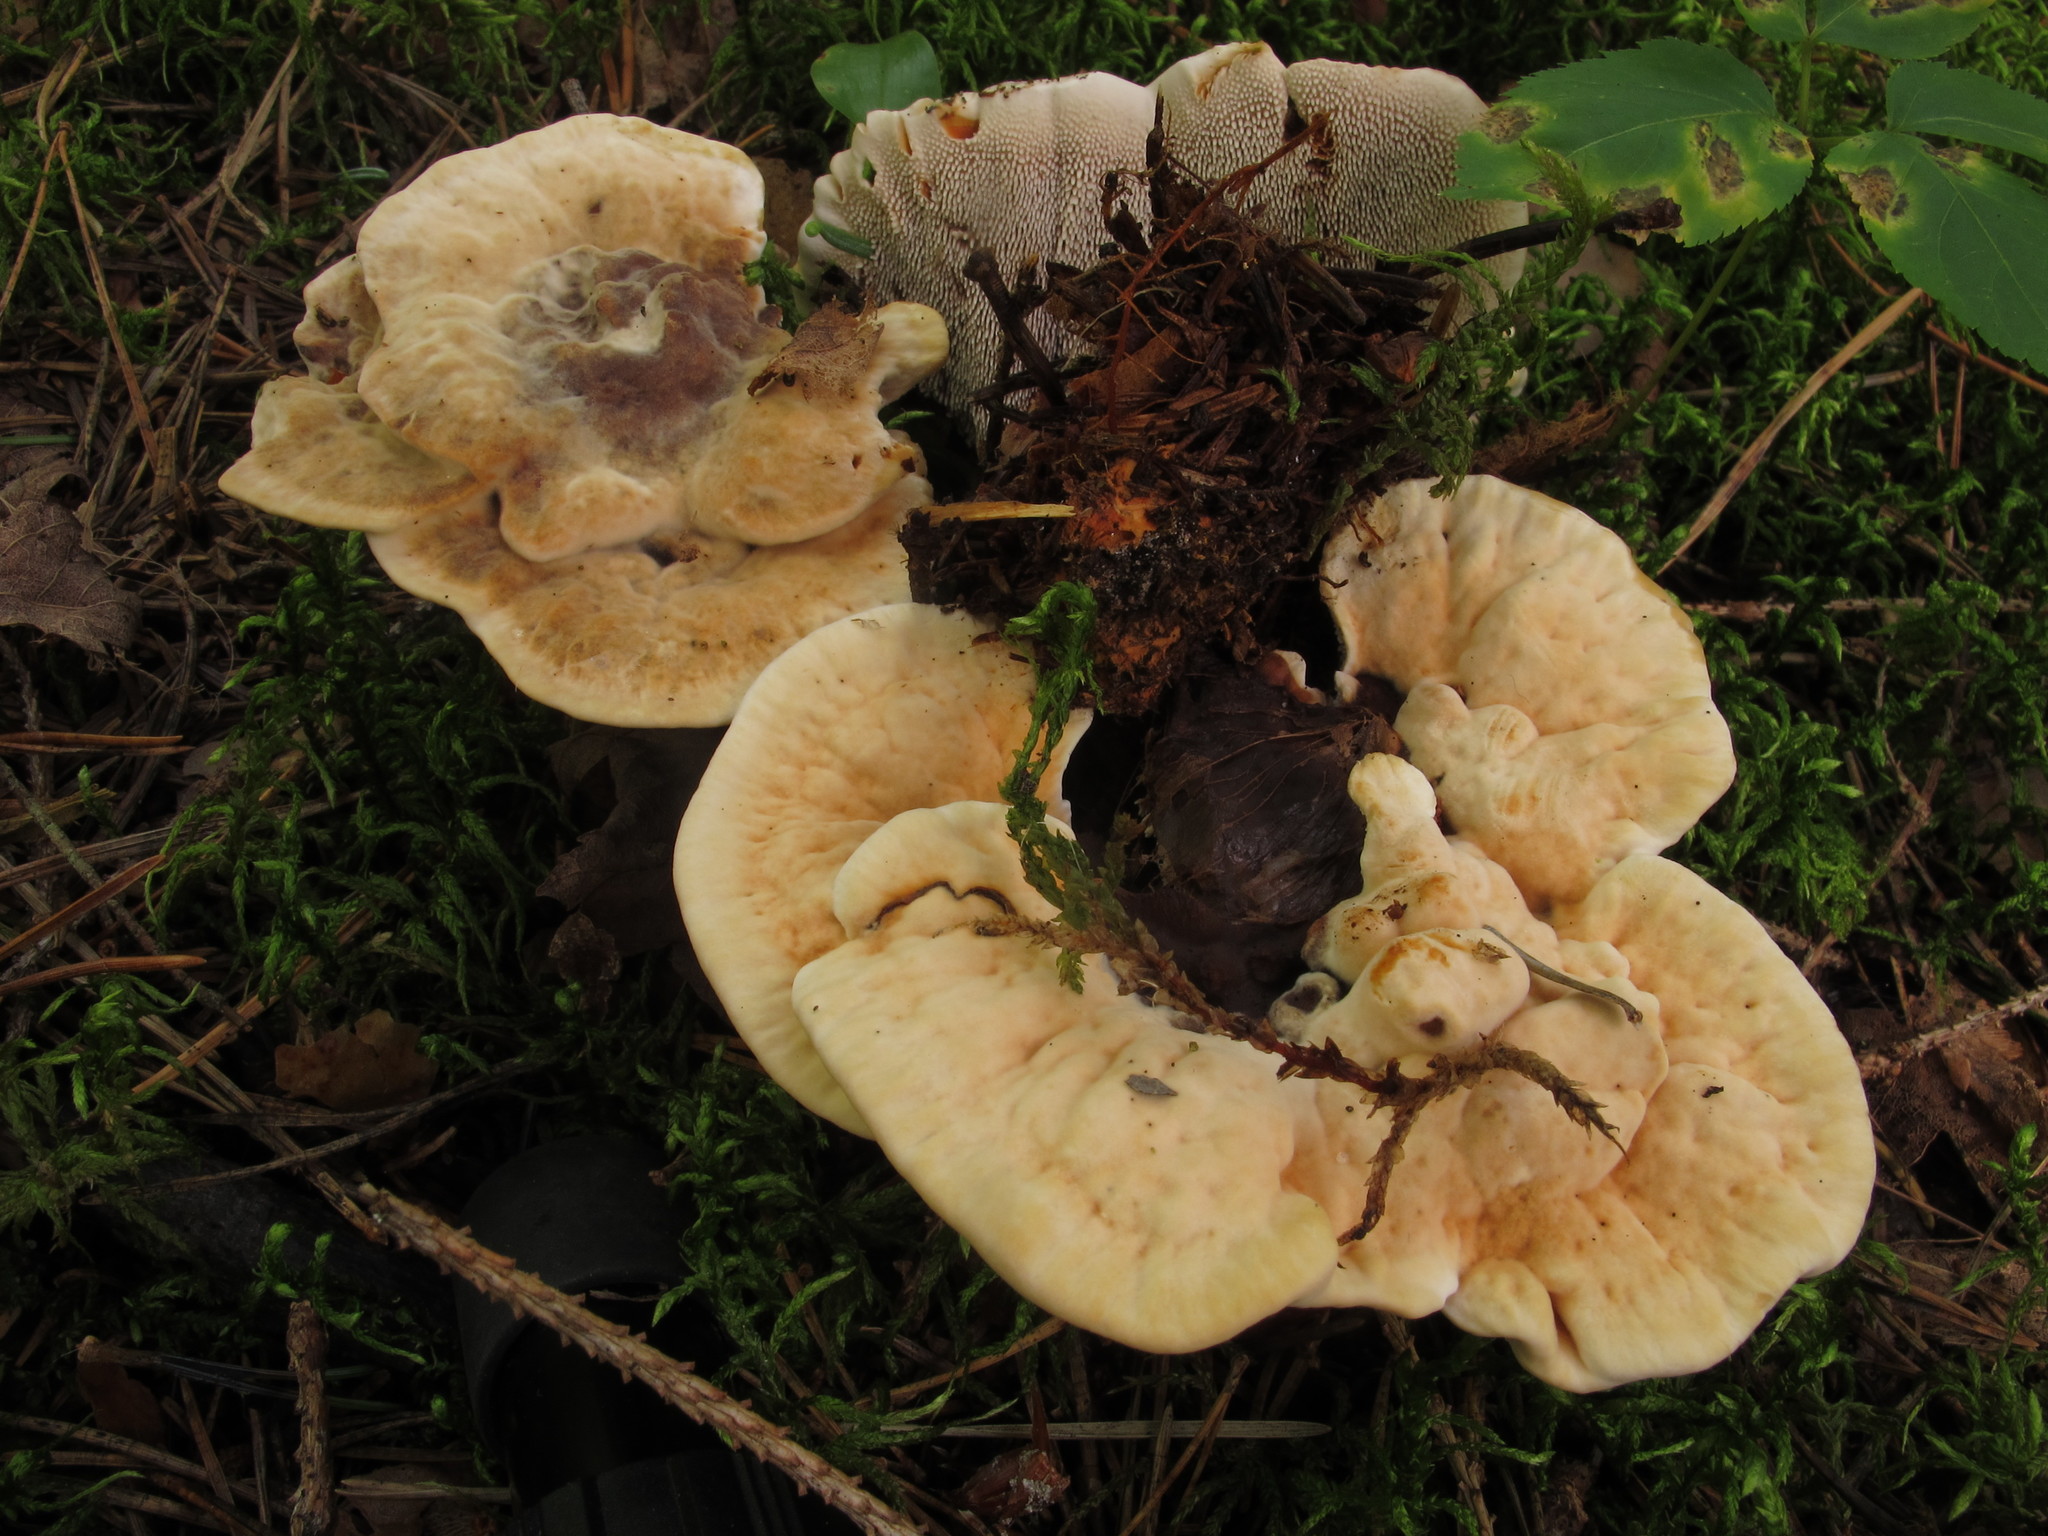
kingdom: Fungi
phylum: Basidiomycota
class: Agaricomycetes
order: Thelephorales
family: Bankeraceae
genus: Hydnellum
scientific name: Hydnellum aurantiacum
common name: Orange tooth
